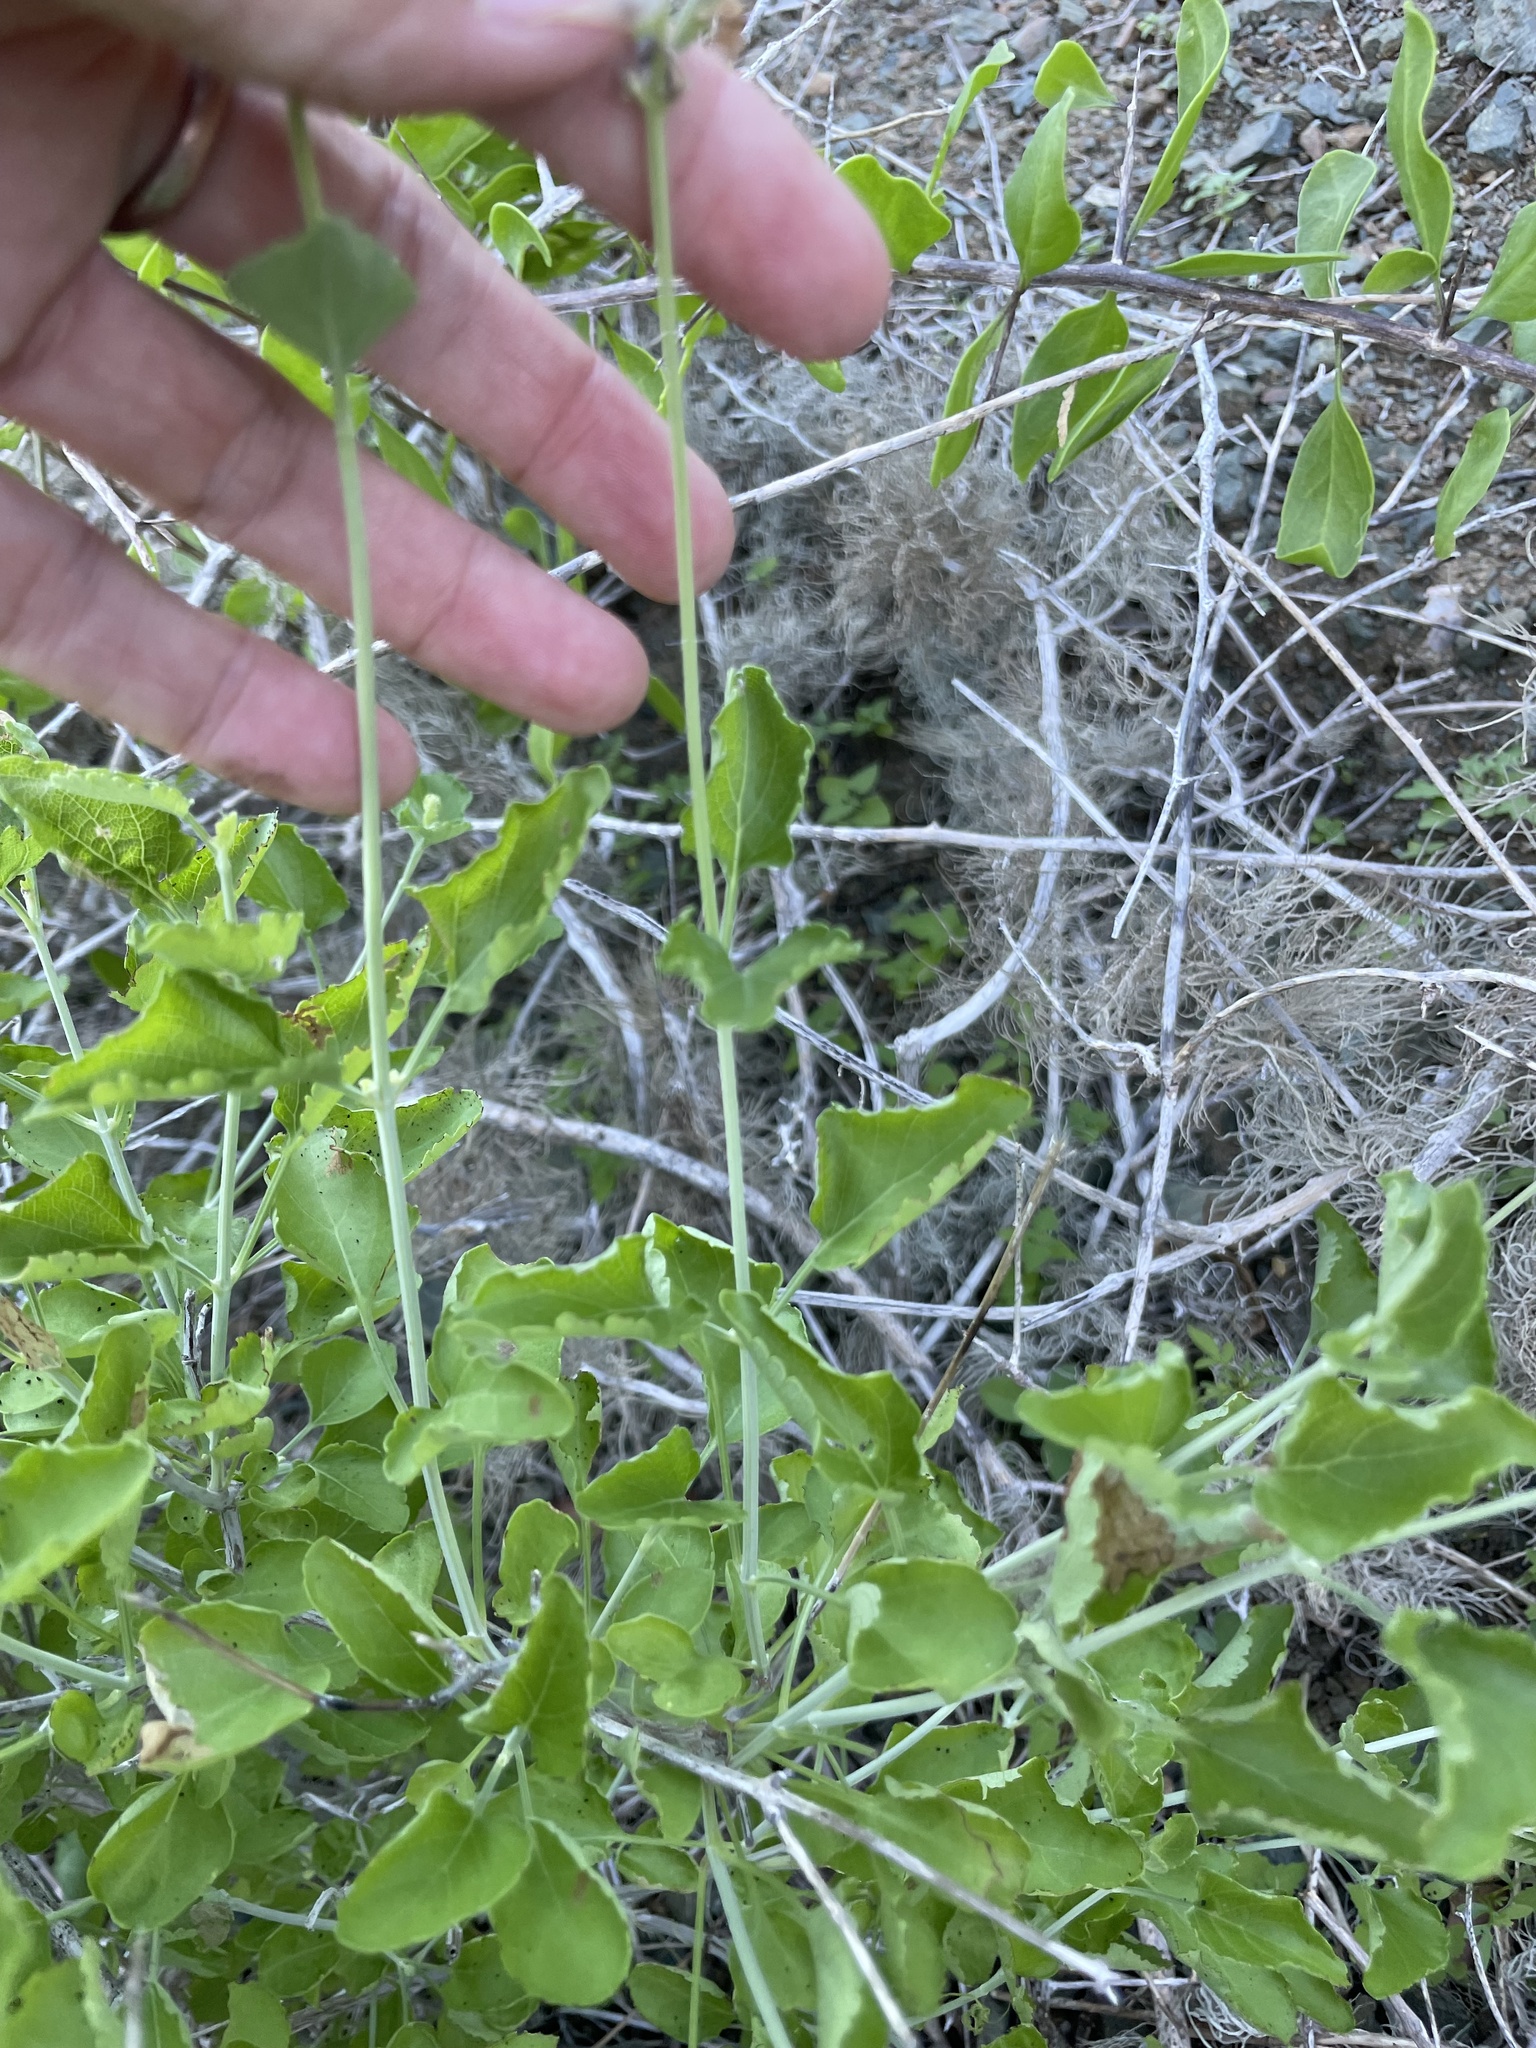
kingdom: Plantae
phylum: Tracheophyta
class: Magnoliopsida
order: Lamiales
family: Lamiaceae
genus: Salvia
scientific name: Salvia cedrosensis
